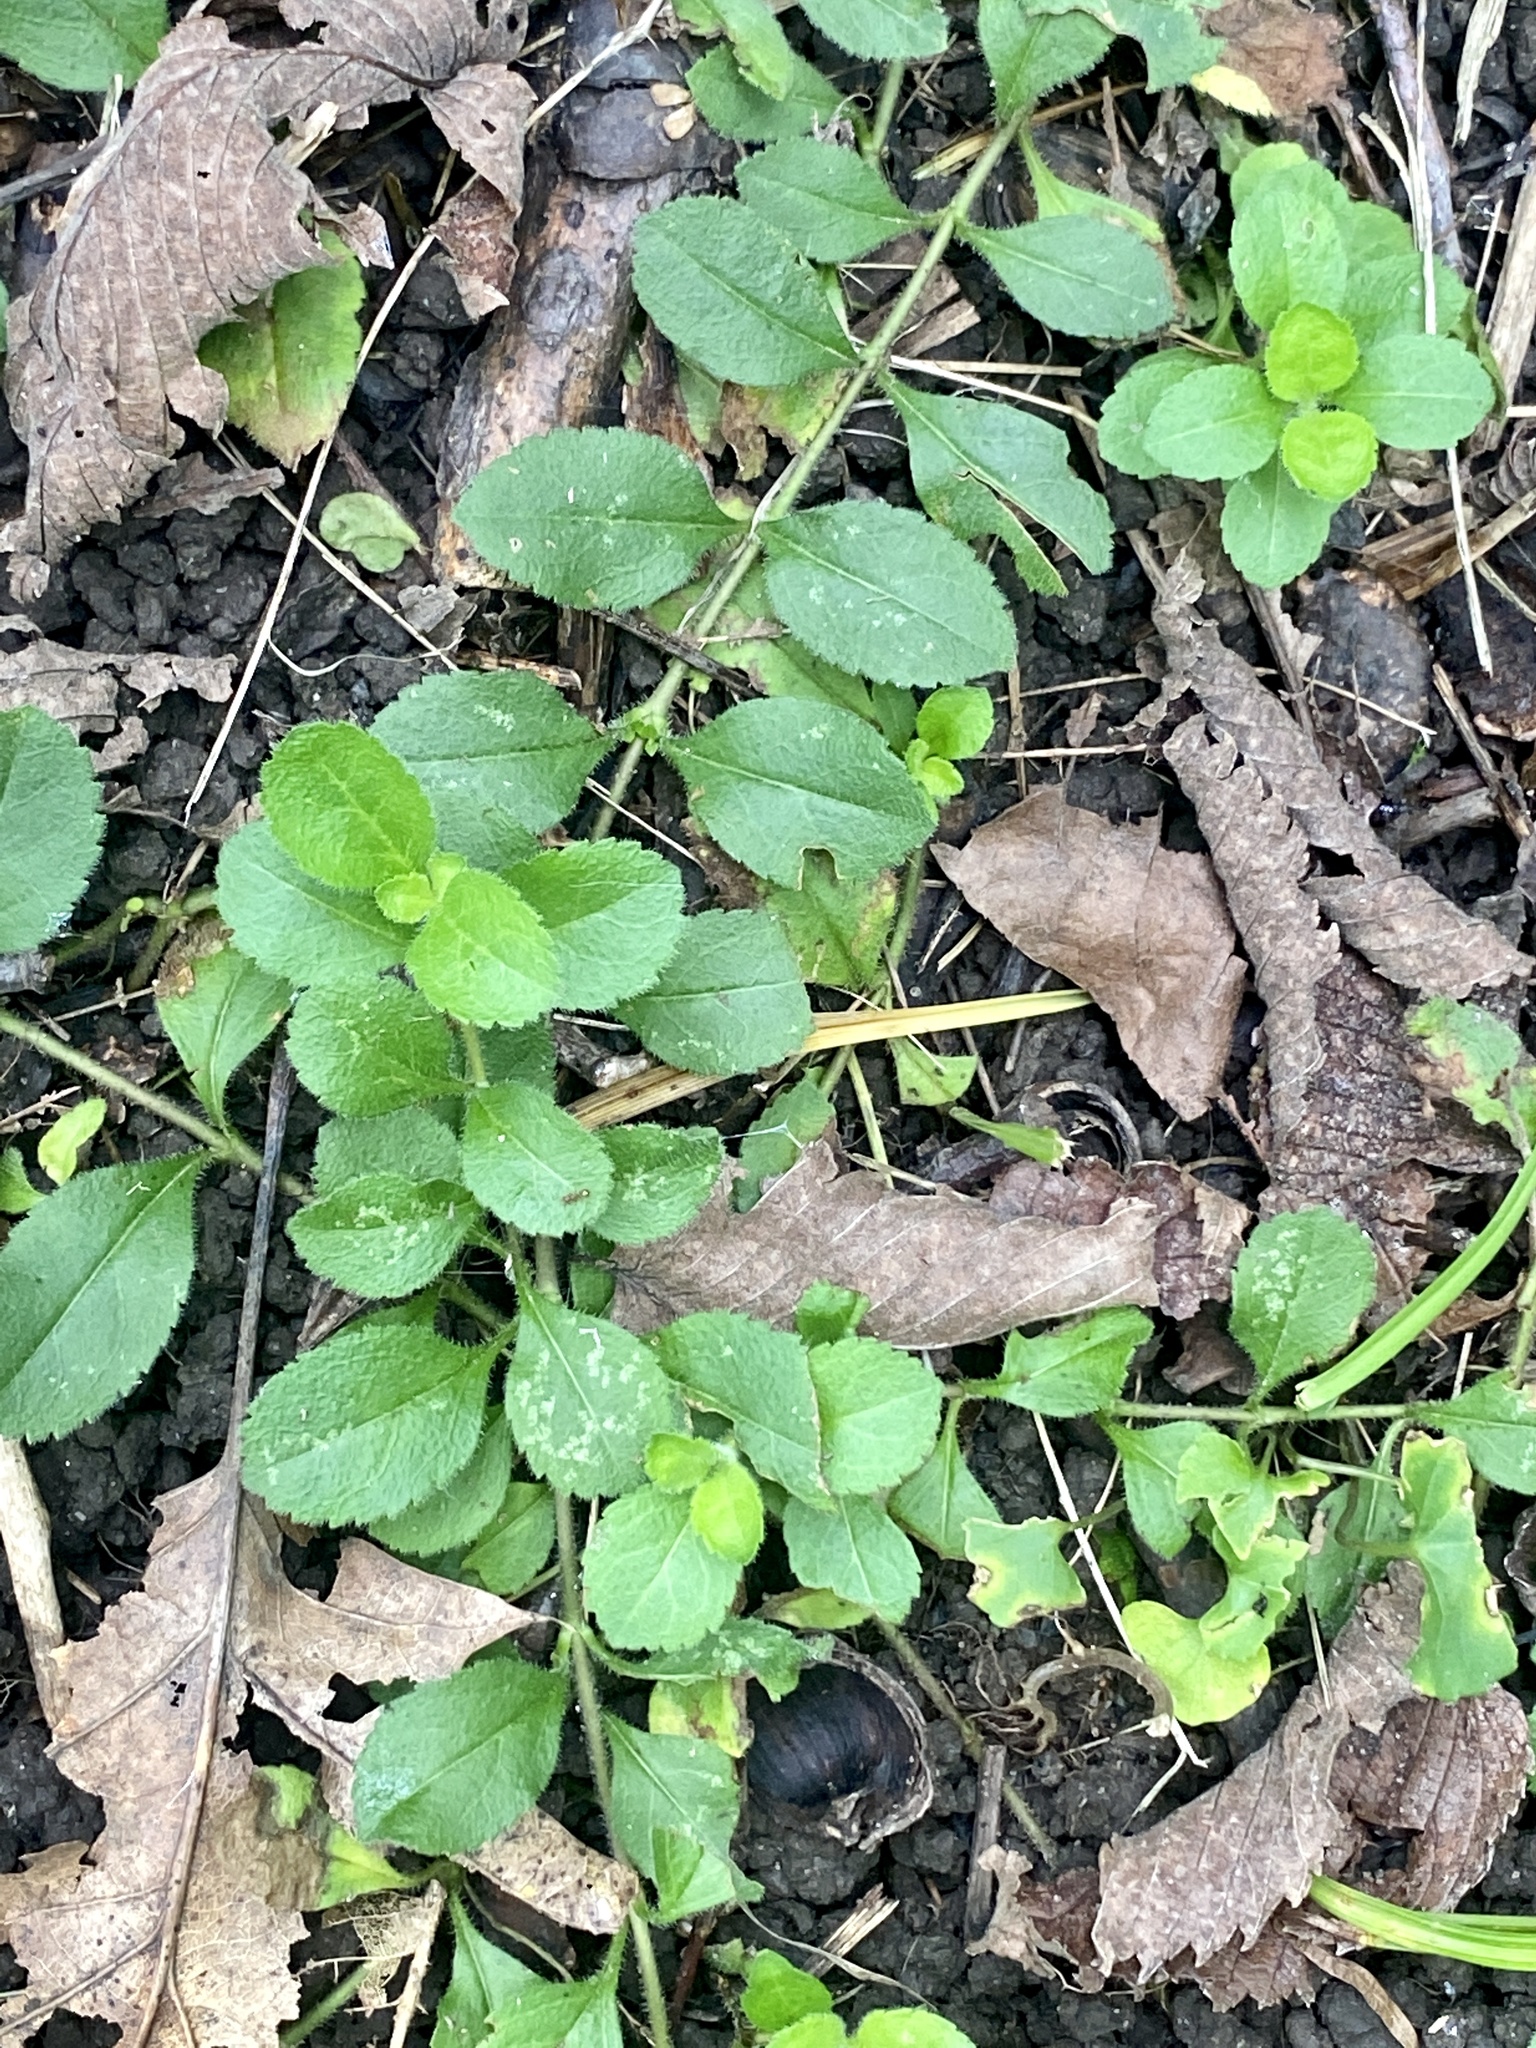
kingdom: Plantae
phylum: Tracheophyta
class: Magnoliopsida
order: Lamiales
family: Plantaginaceae
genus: Veronica
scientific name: Veronica officinalis
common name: Common speedwell
